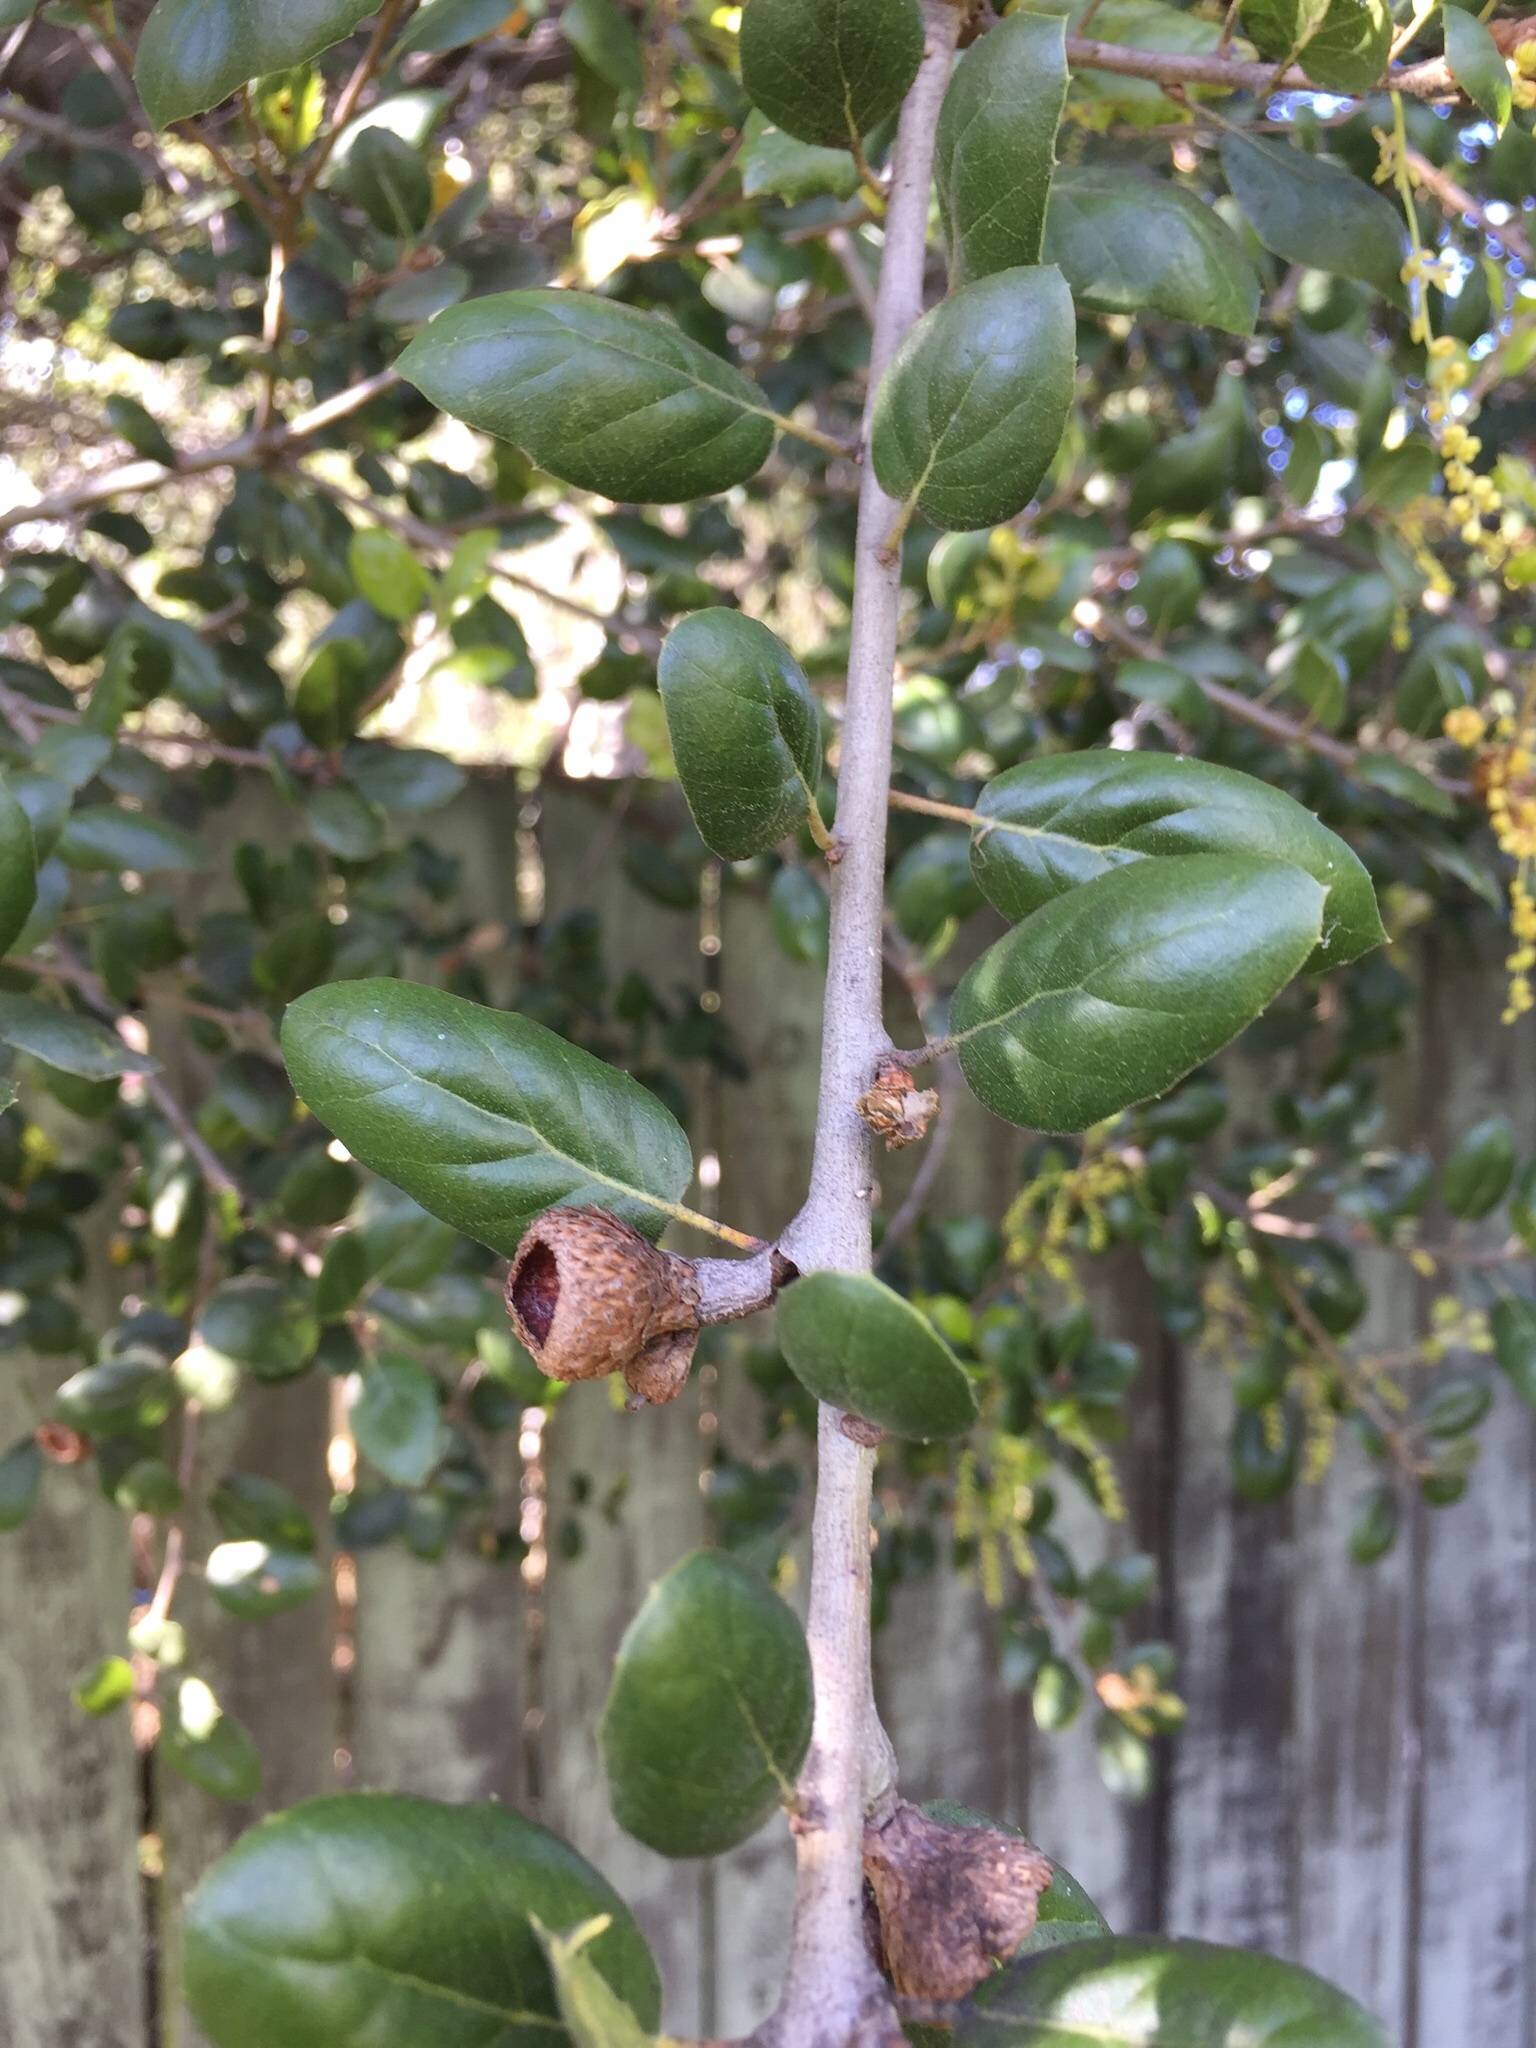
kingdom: Plantae
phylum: Tracheophyta
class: Magnoliopsida
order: Fagales
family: Fagaceae
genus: Quercus
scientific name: Quercus agrifolia
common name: California live oak
